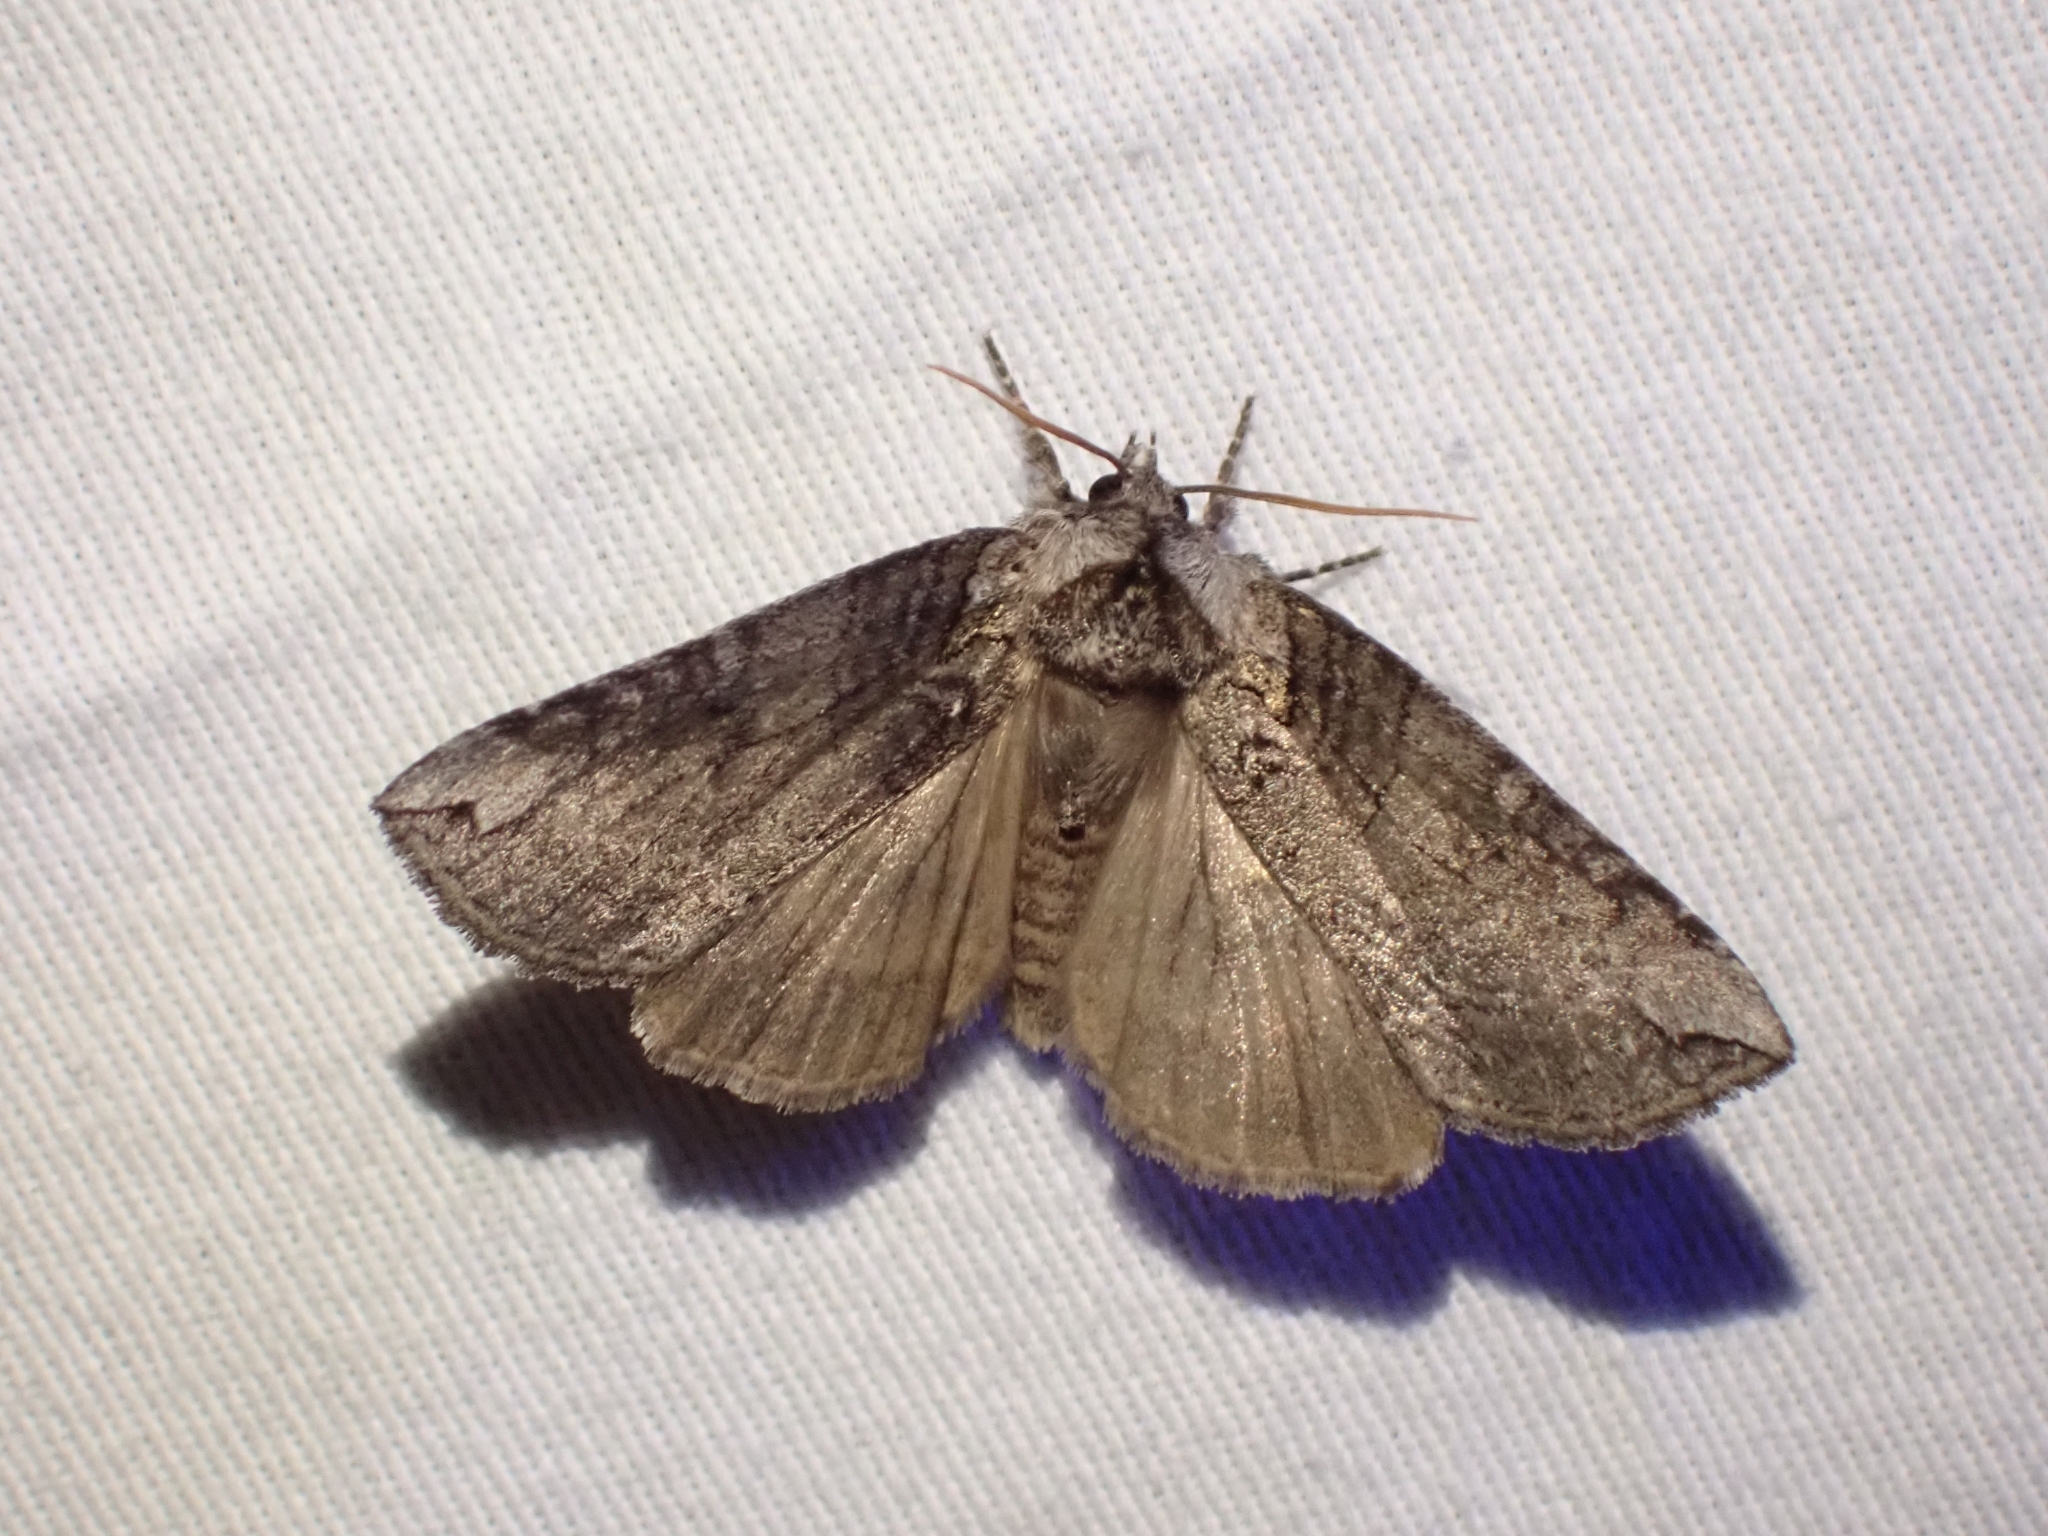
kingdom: Animalia
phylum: Arthropoda
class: Insecta
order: Lepidoptera
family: Drepanidae
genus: Euthyatira
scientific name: Euthyatira semicircularis
